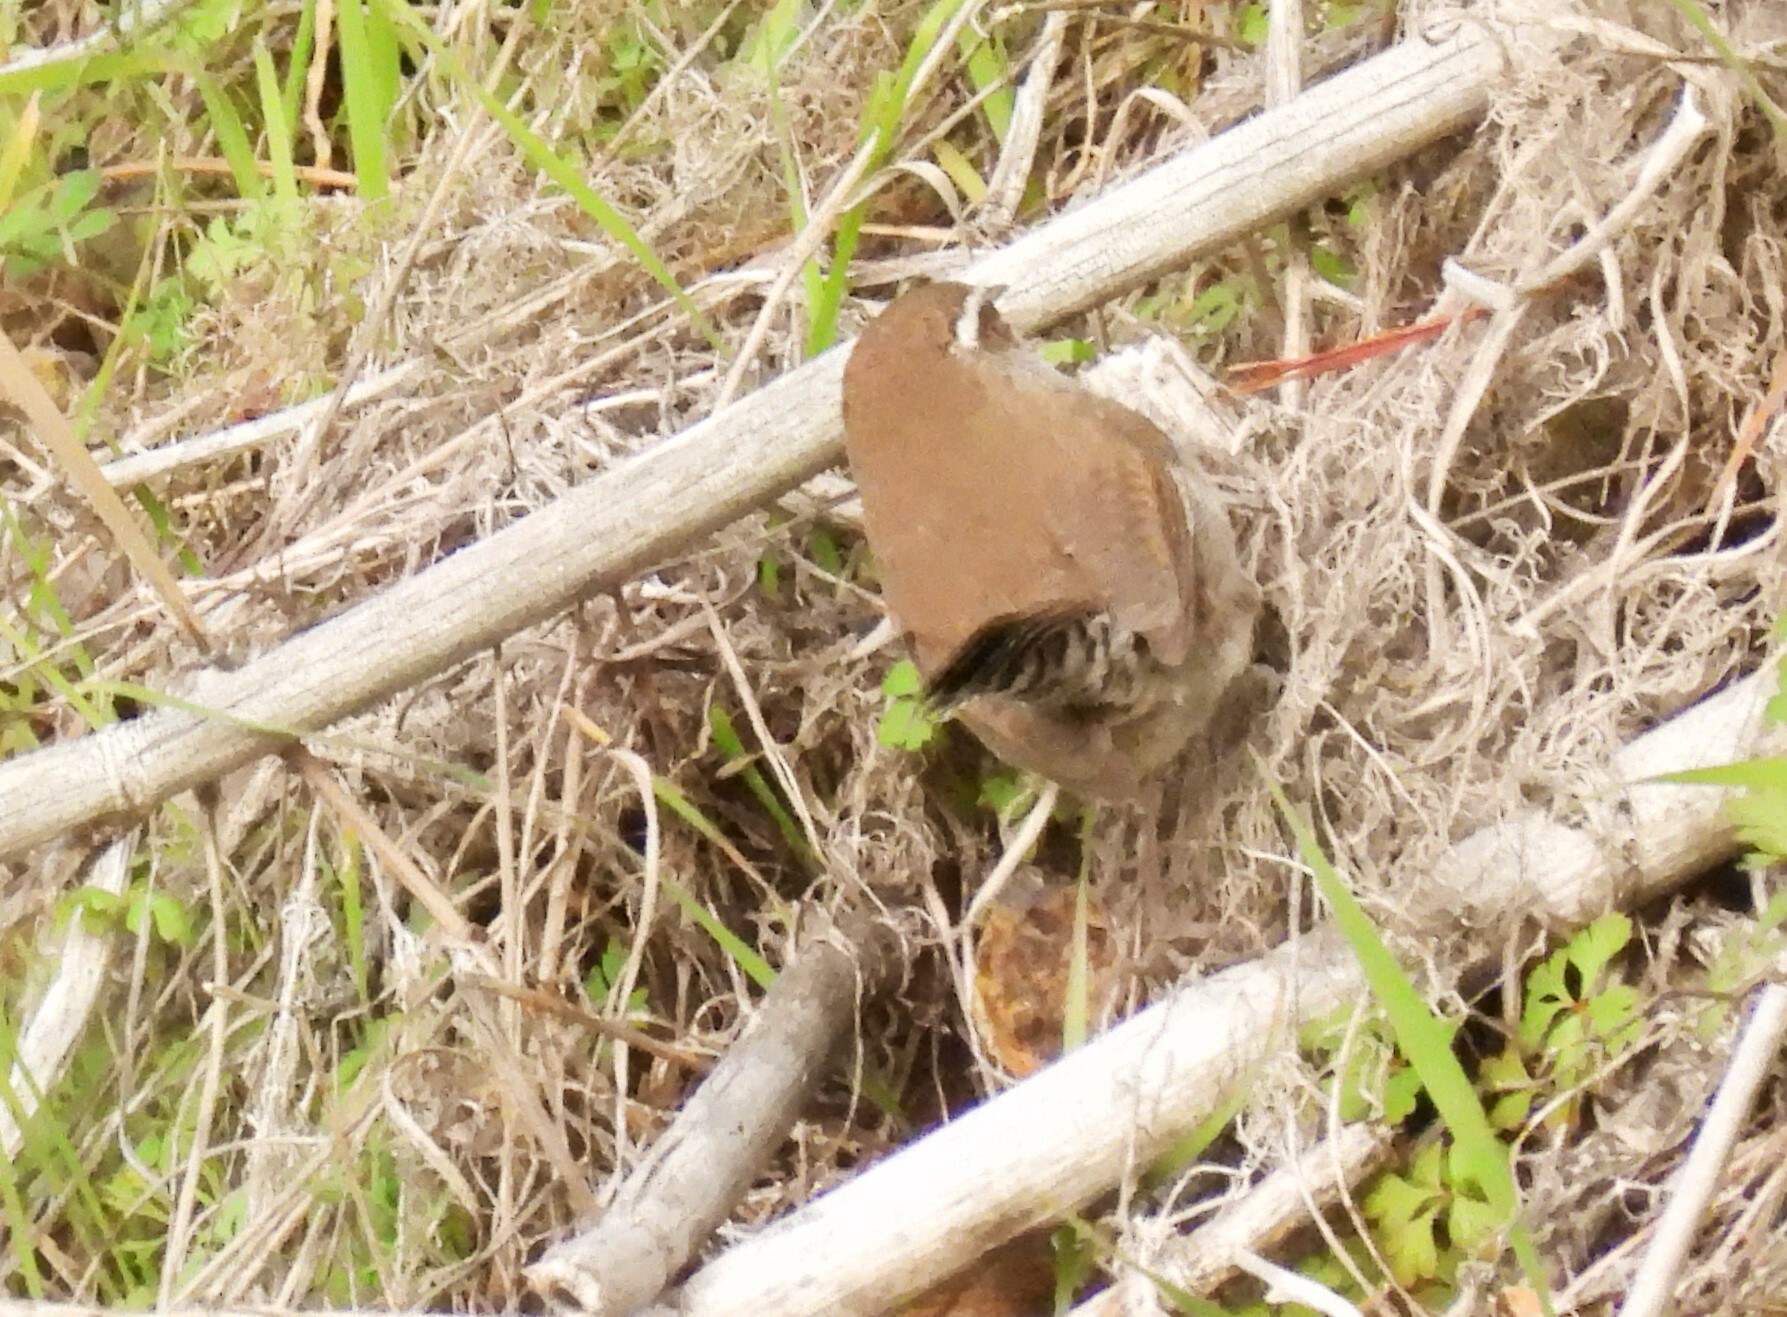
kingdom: Animalia
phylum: Chordata
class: Aves
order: Passeriformes
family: Troglodytidae
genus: Thryomanes
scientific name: Thryomanes bewickii
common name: Bewick's wren
